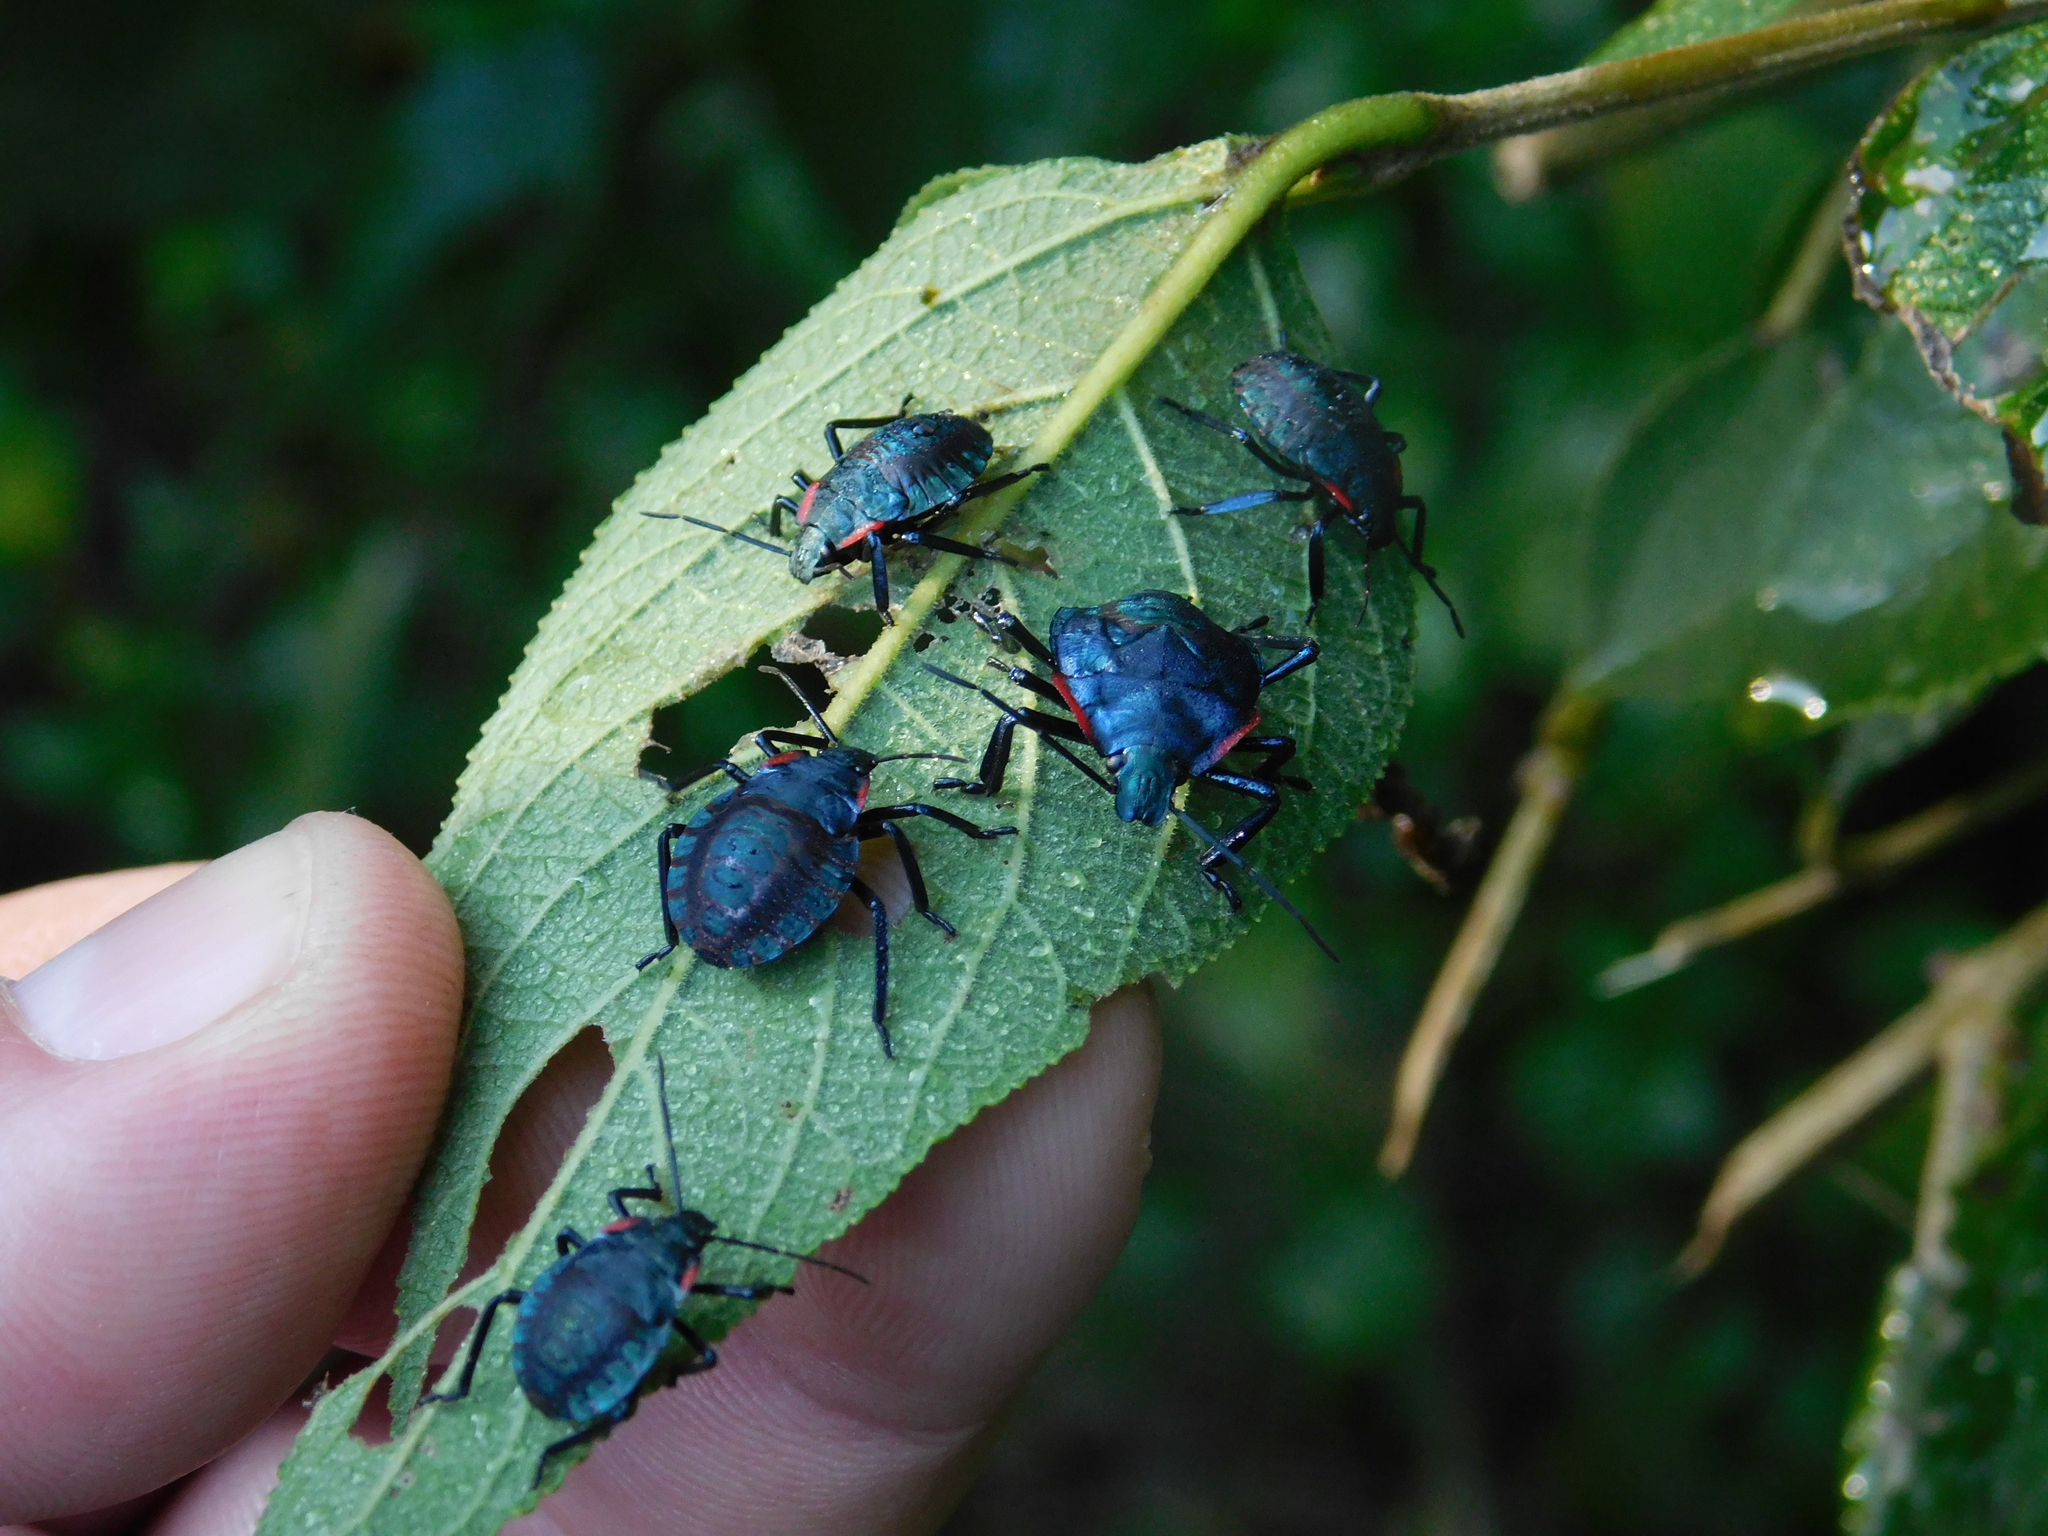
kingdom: Animalia
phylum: Arthropoda
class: Insecta
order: Hemiptera
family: Pentatomidae
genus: Alcaeorrhynchus
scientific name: Alcaeorrhynchus grandis
